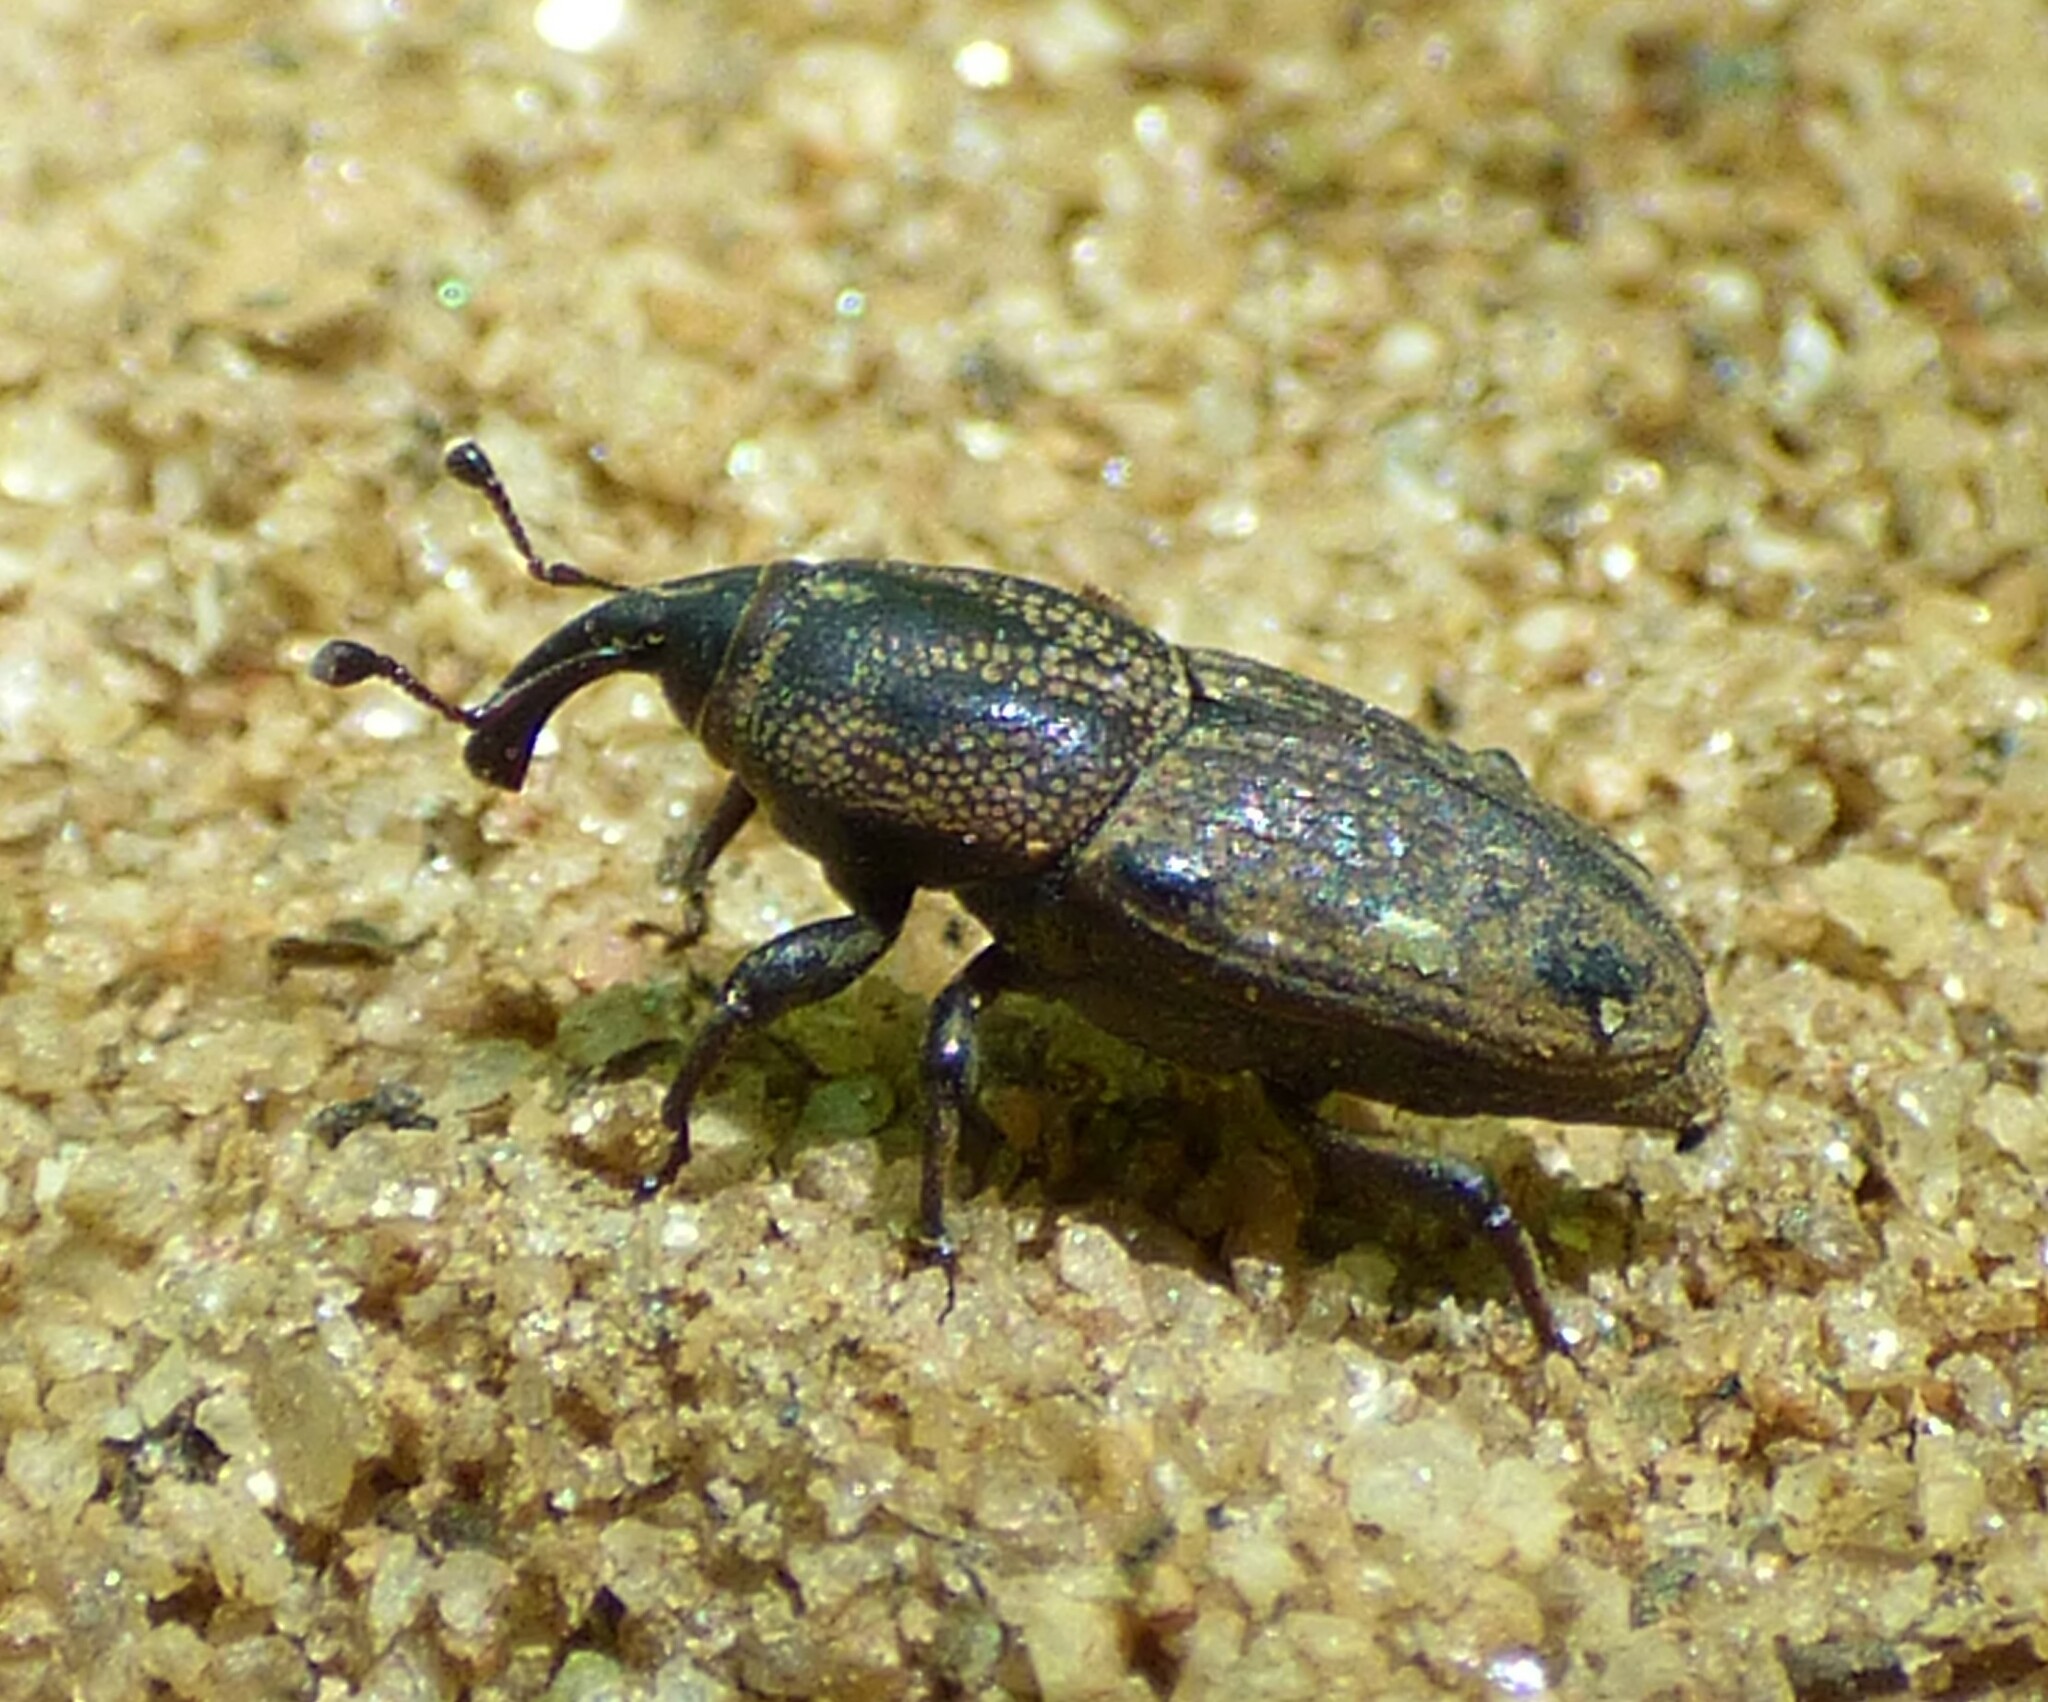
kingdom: Animalia
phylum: Arthropoda
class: Insecta
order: Coleoptera
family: Dryophthoridae
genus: Sphenophorus
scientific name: Sphenophorus venatus
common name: Hunting billbug
